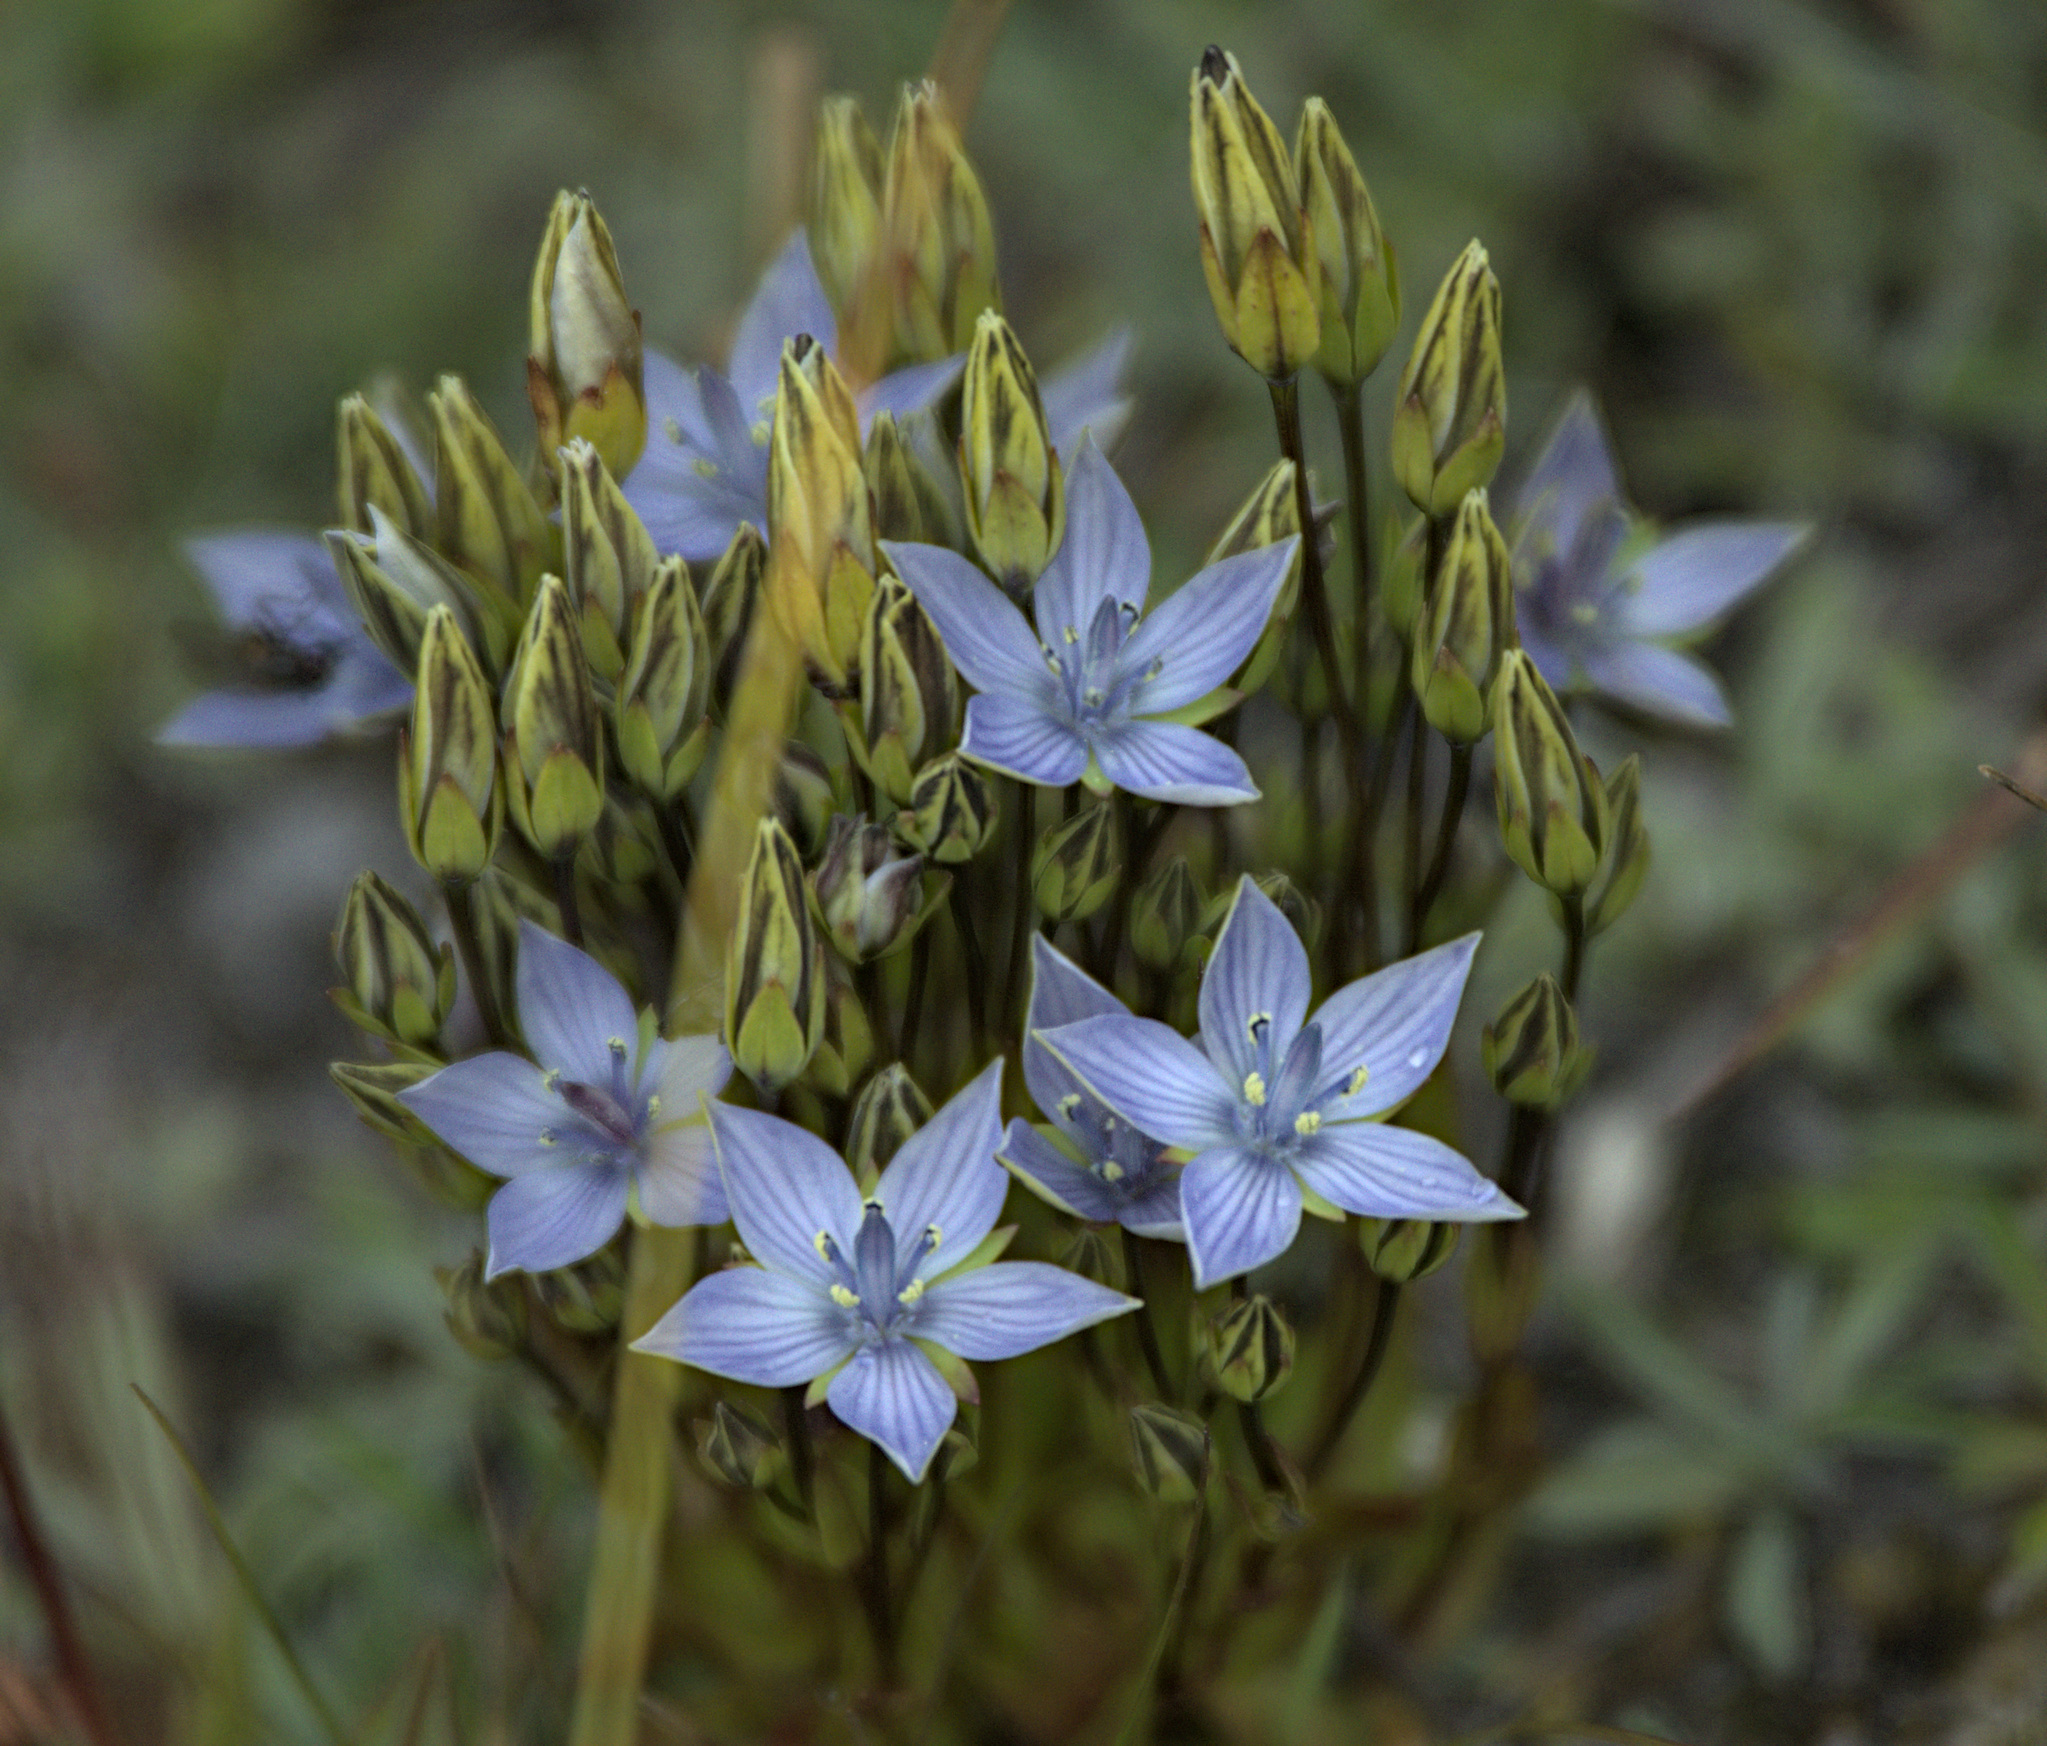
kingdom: Plantae
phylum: Tracheophyta
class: Magnoliopsida
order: Gentianales
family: Gentianaceae
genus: Lomatogonium
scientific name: Lomatogonium carinthiacum
